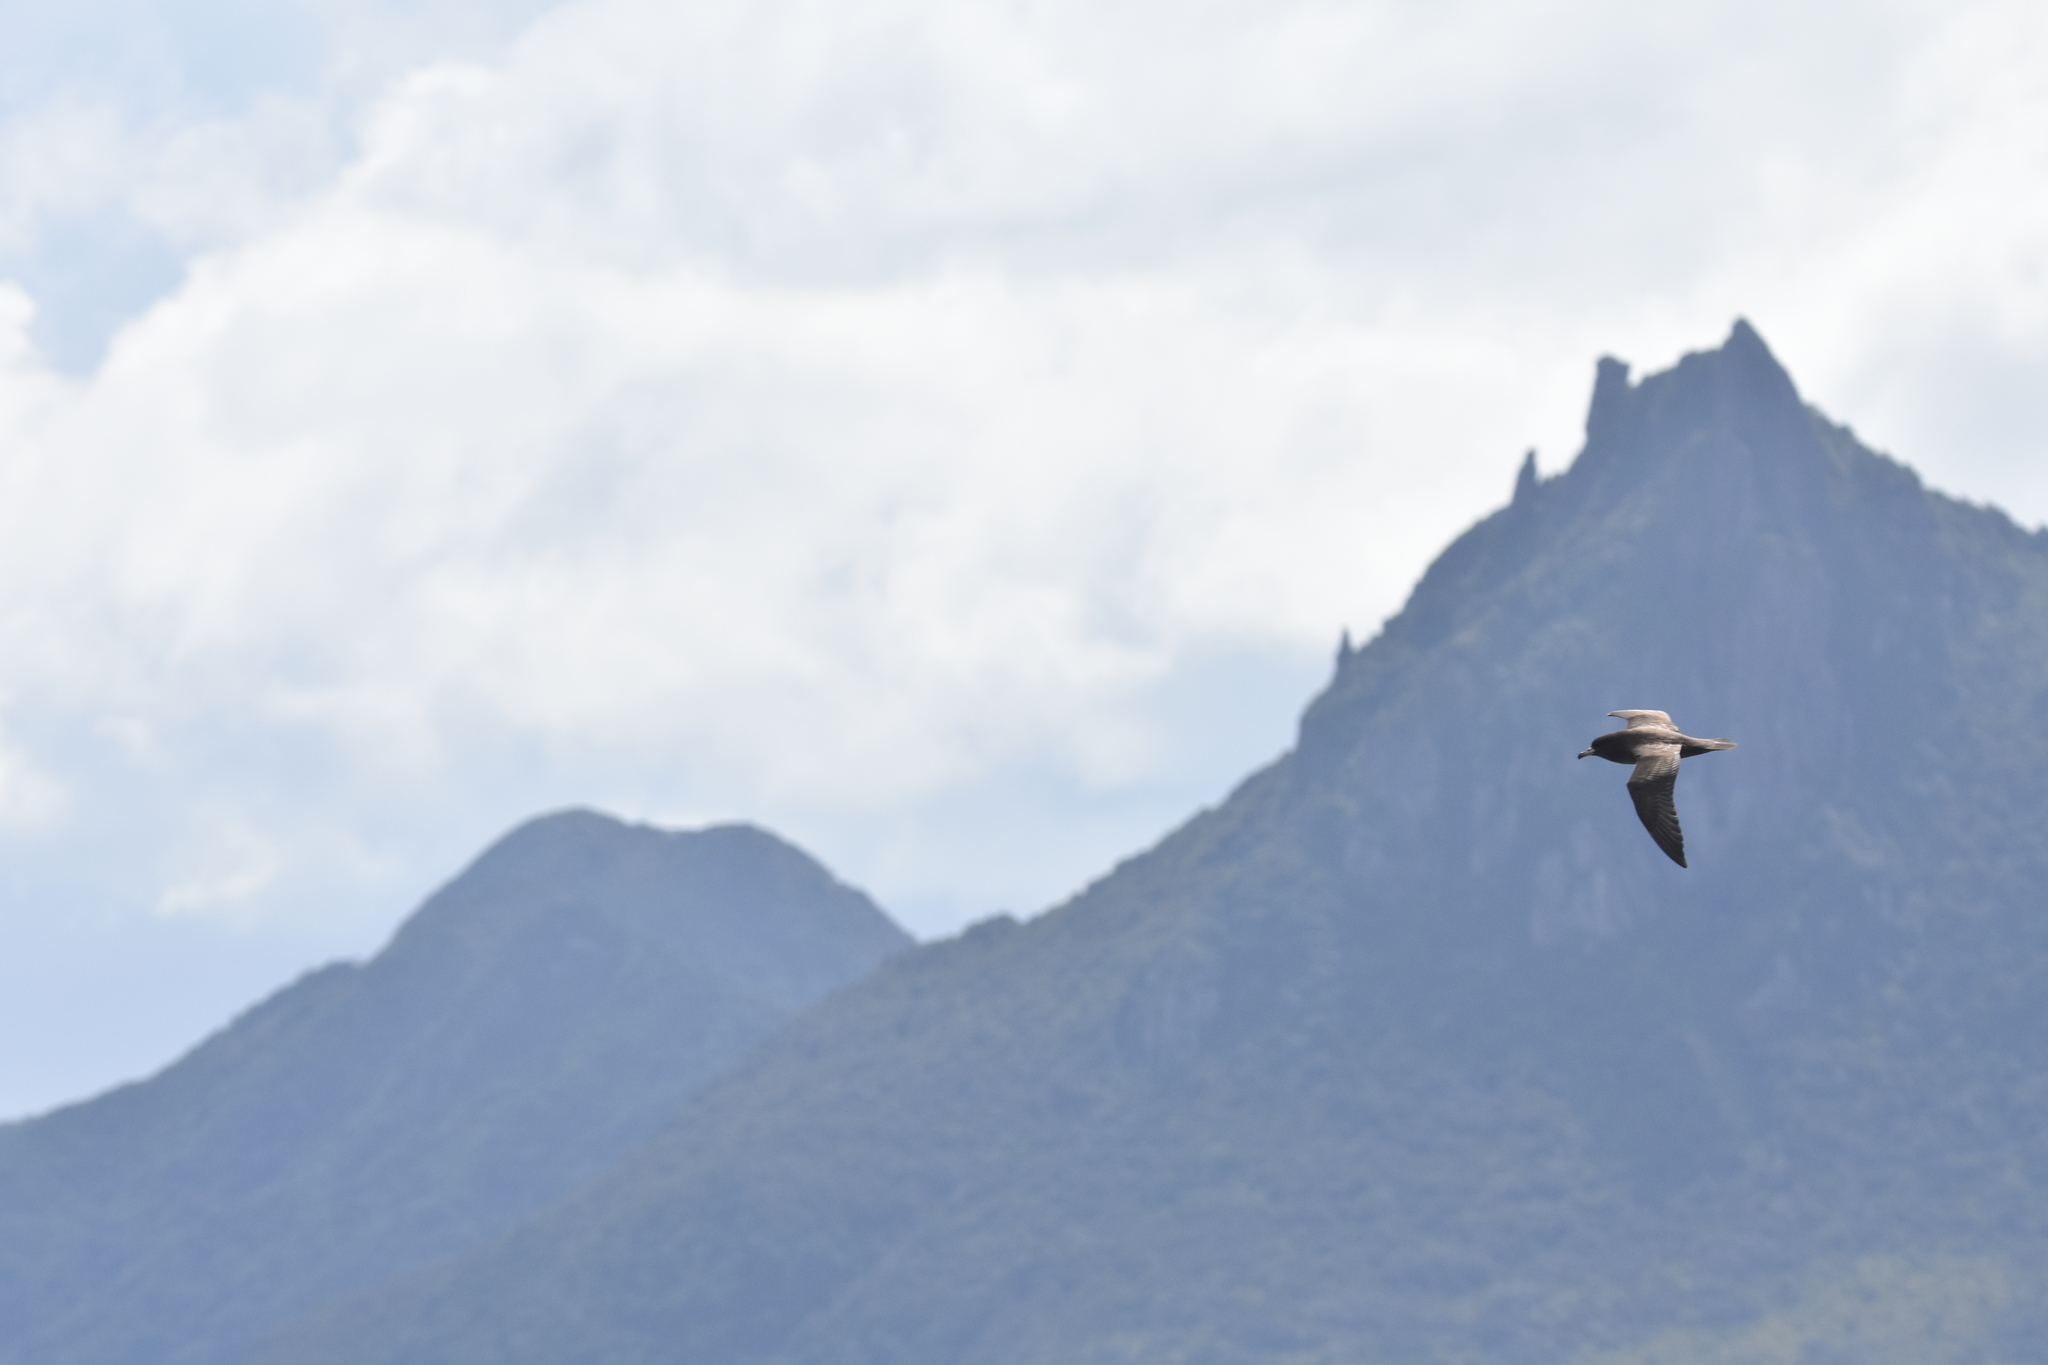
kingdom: Animalia
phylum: Chordata
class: Aves
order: Procellariiformes
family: Procellariidae
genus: Puffinus
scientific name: Puffinus carneipes
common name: Flesh-footed shearwater
